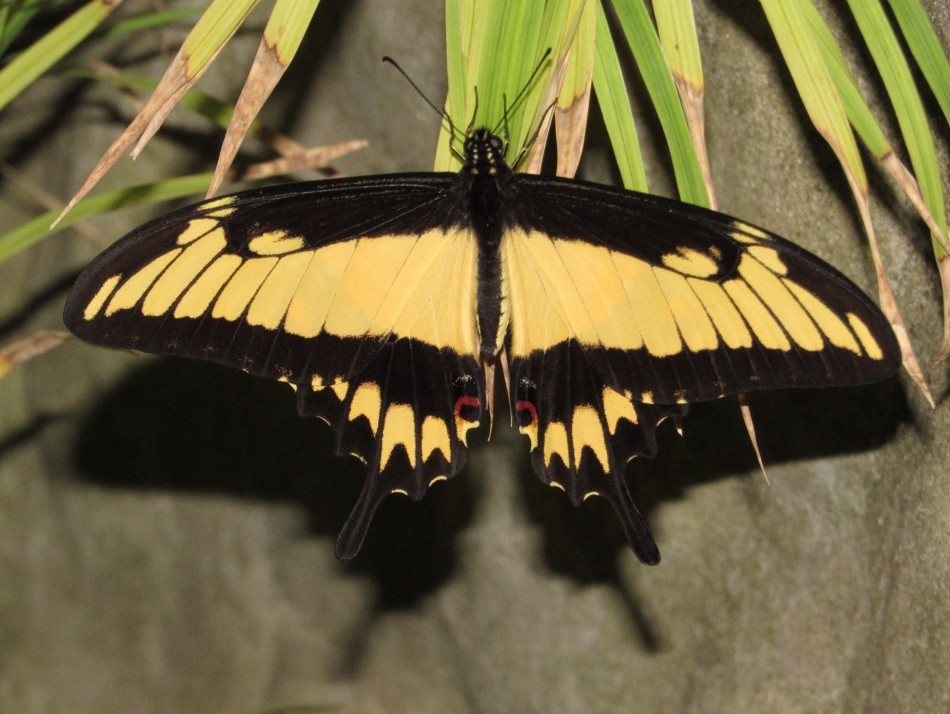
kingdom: Animalia
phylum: Arthropoda
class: Insecta
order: Lepidoptera
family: Papilionidae
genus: Papilio
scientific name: Papilio astyalus
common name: Astyalus swallowtail
